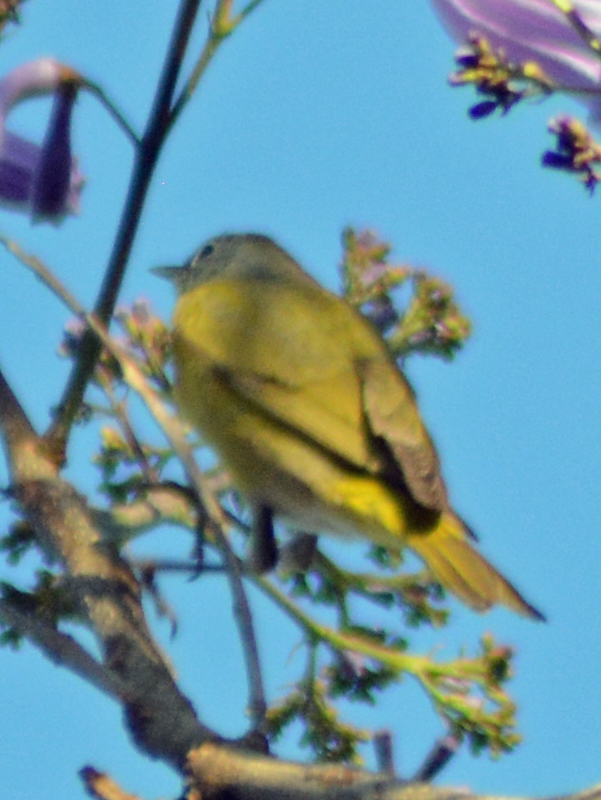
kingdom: Animalia
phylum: Chordata
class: Aves
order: Passeriformes
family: Parulidae
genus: Leiothlypis
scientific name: Leiothlypis ruficapilla
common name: Nashville warbler
